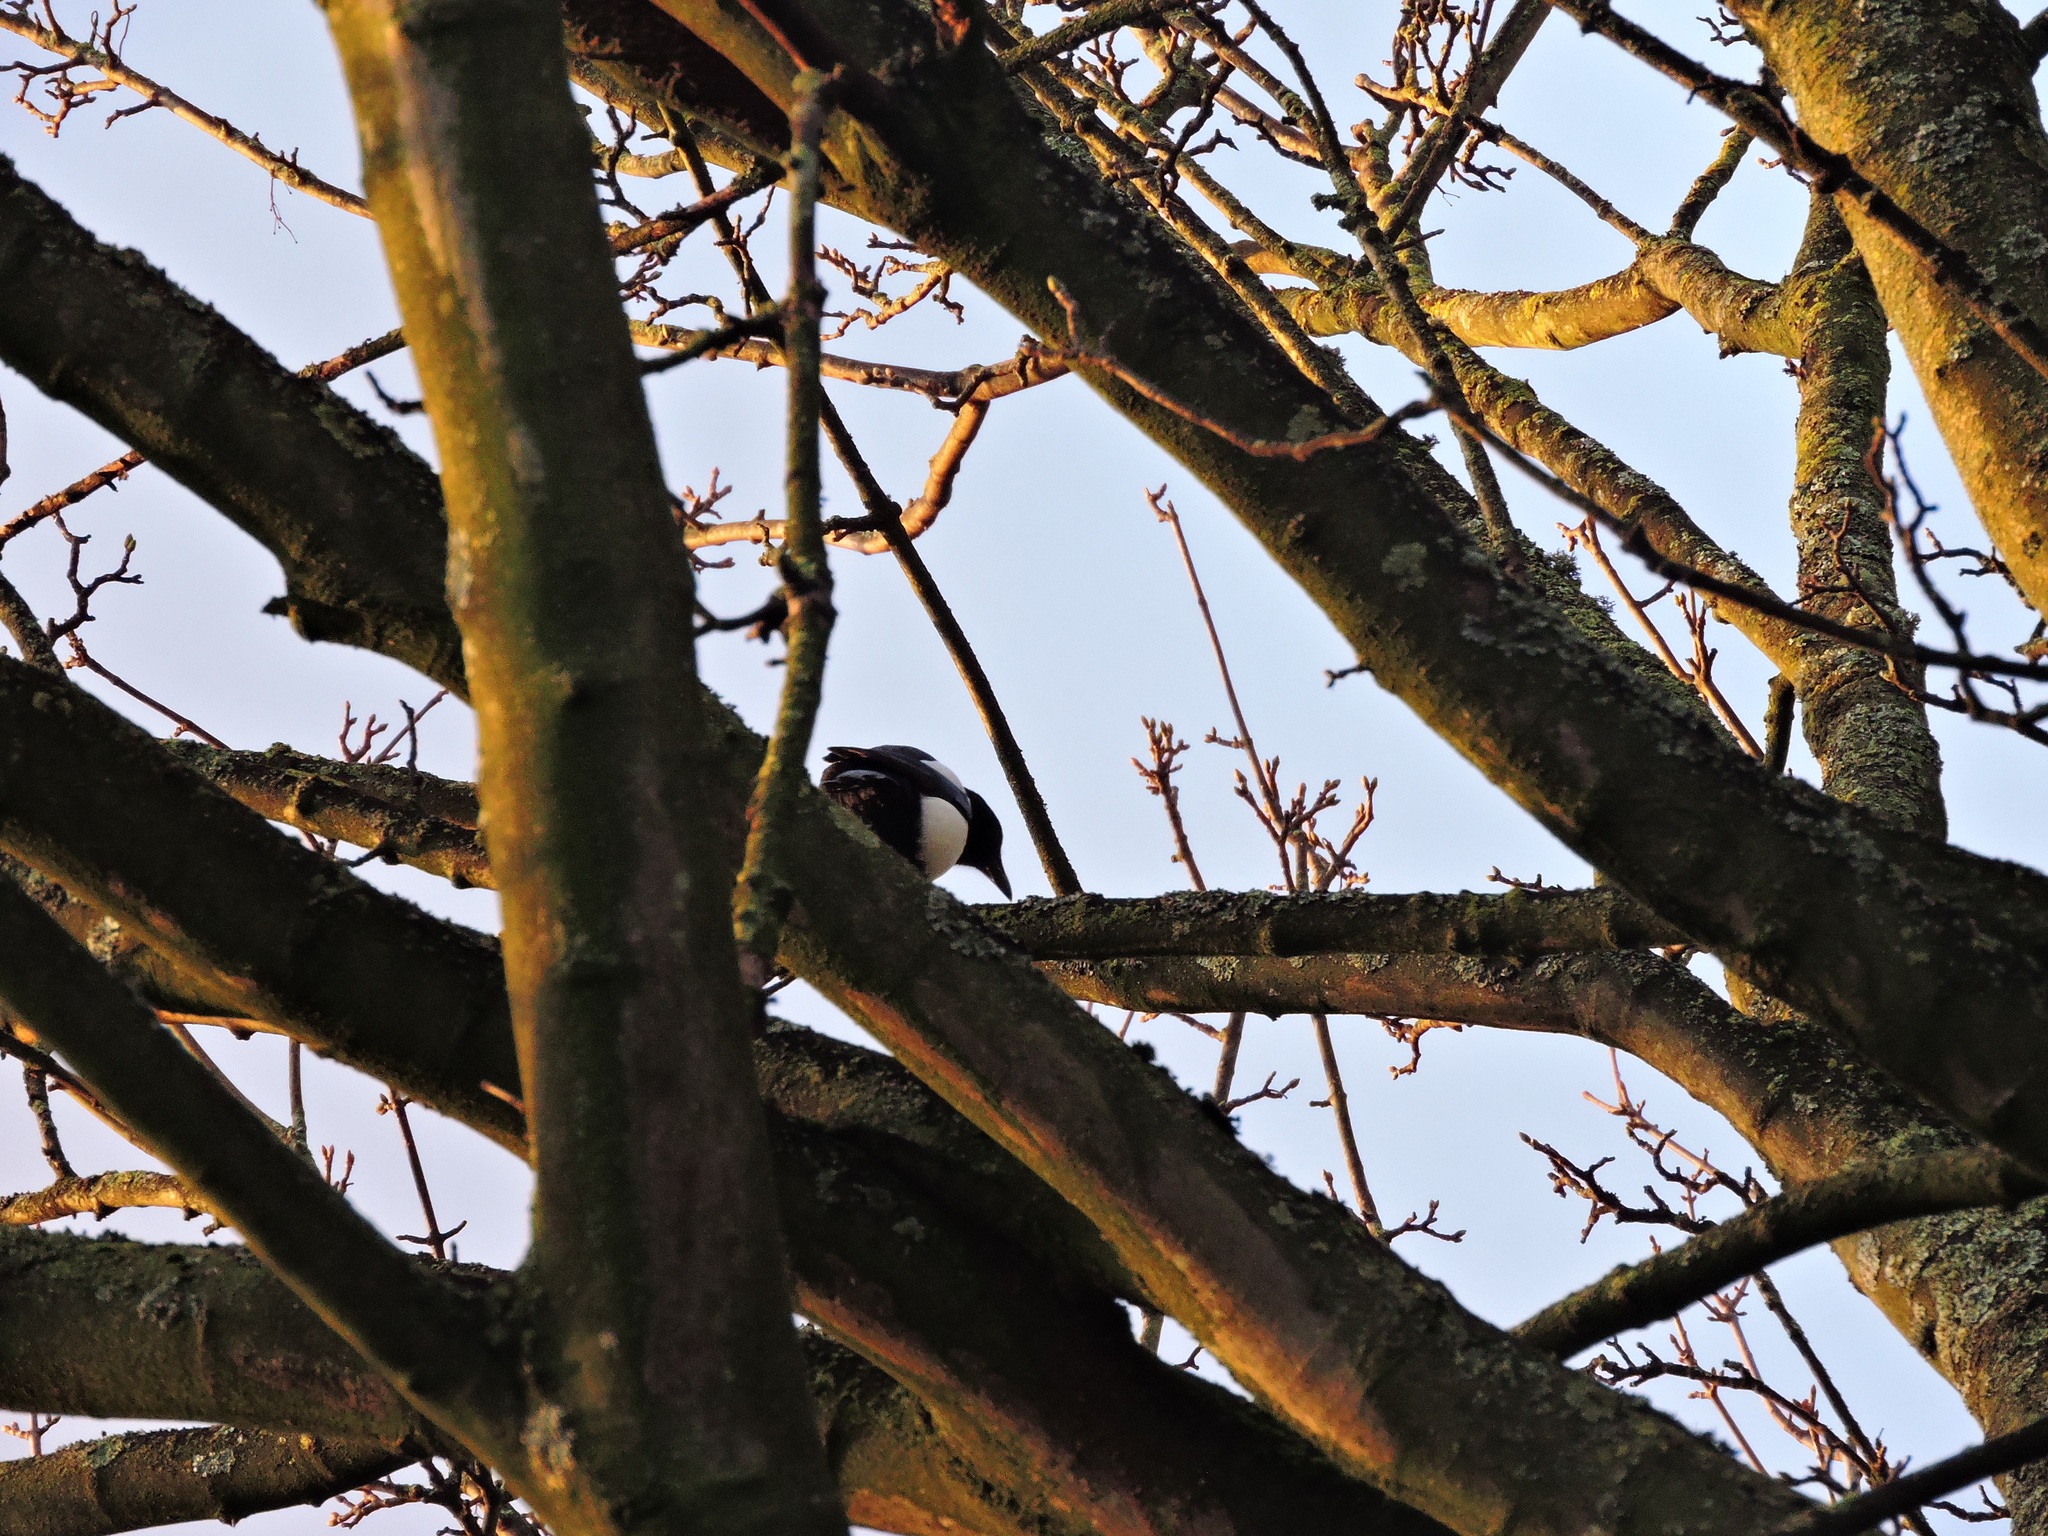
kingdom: Animalia
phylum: Chordata
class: Aves
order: Passeriformes
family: Corvidae
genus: Pica
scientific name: Pica pica
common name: Eurasian magpie
